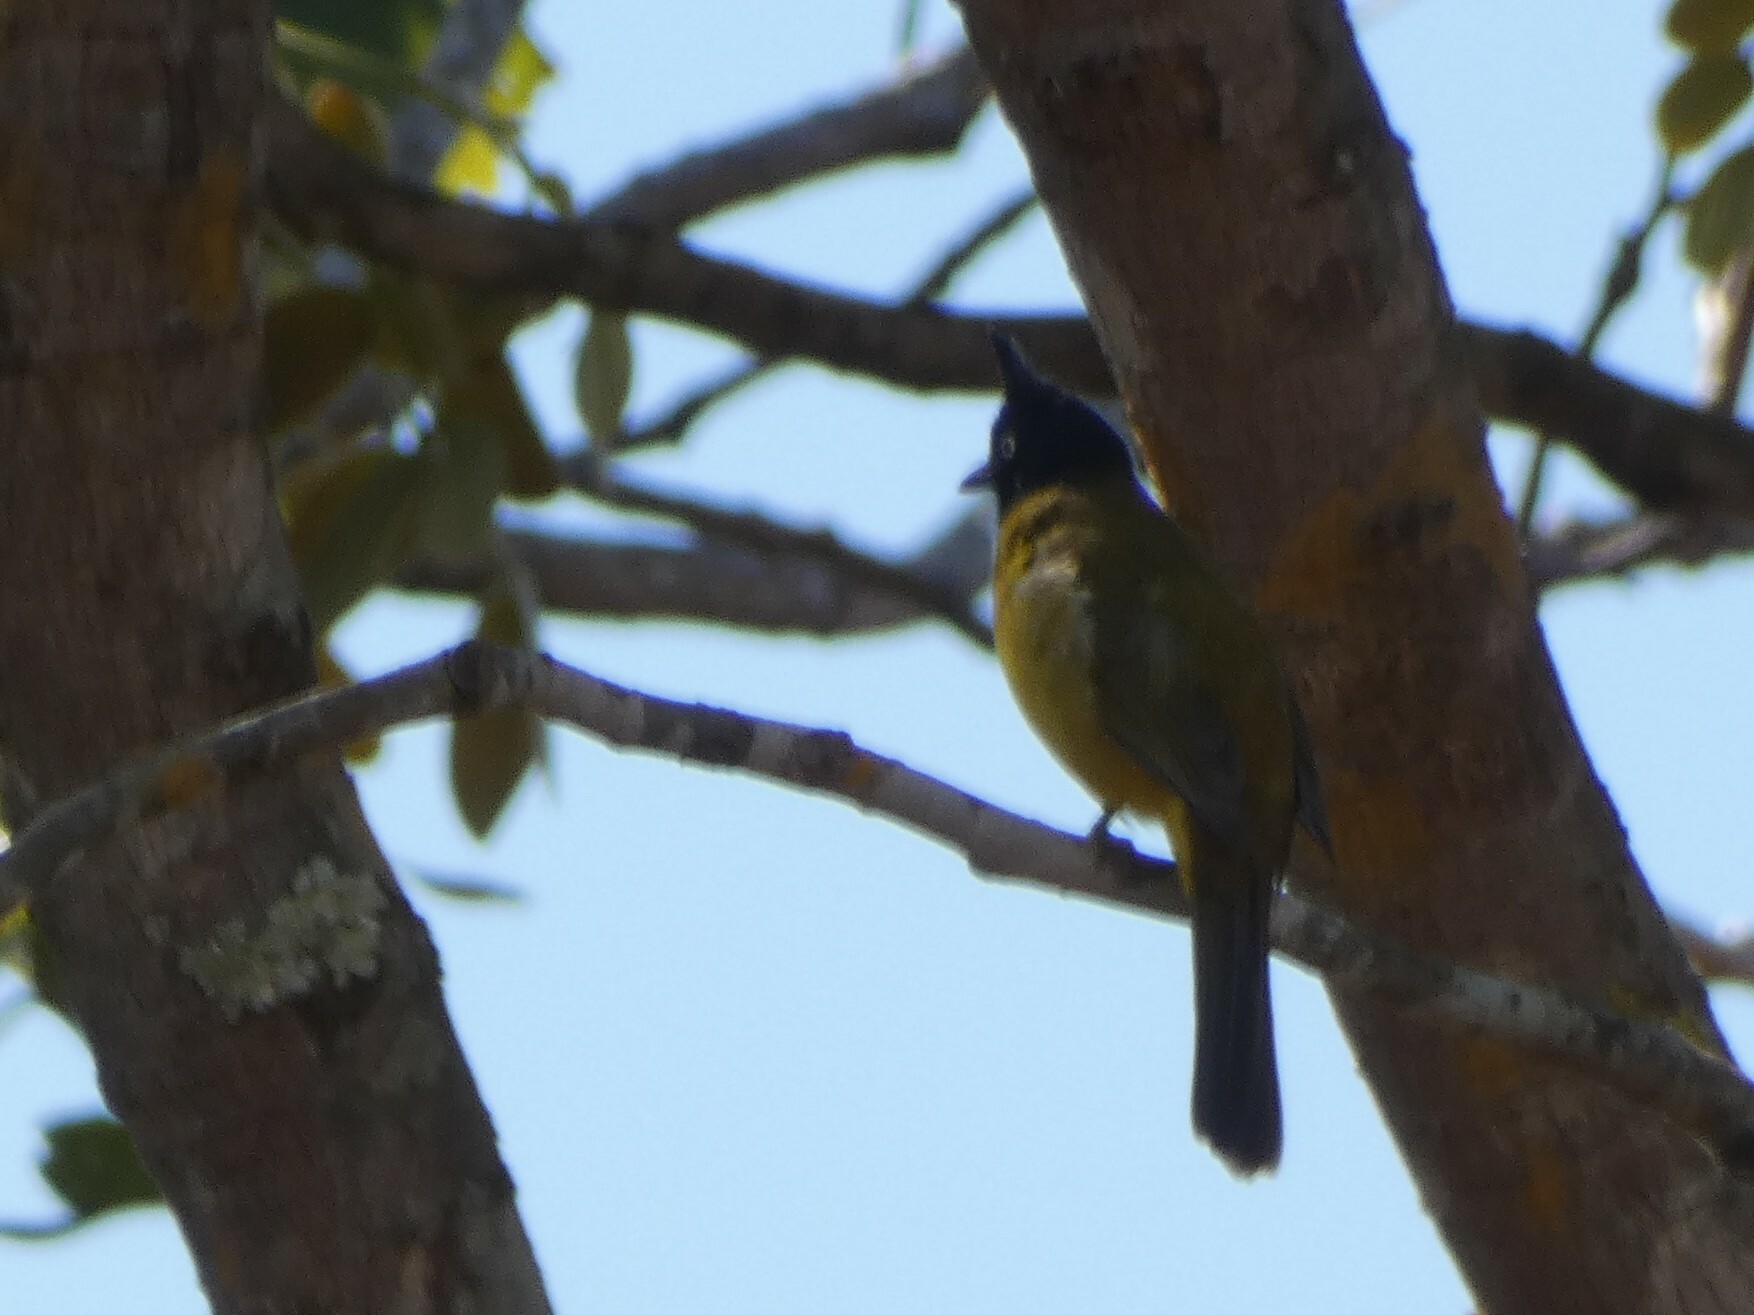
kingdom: Animalia
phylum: Chordata
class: Aves
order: Passeriformes
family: Pycnonotidae
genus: Pycnonotus
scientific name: Pycnonotus flaviventris
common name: Black-crested bulbul
